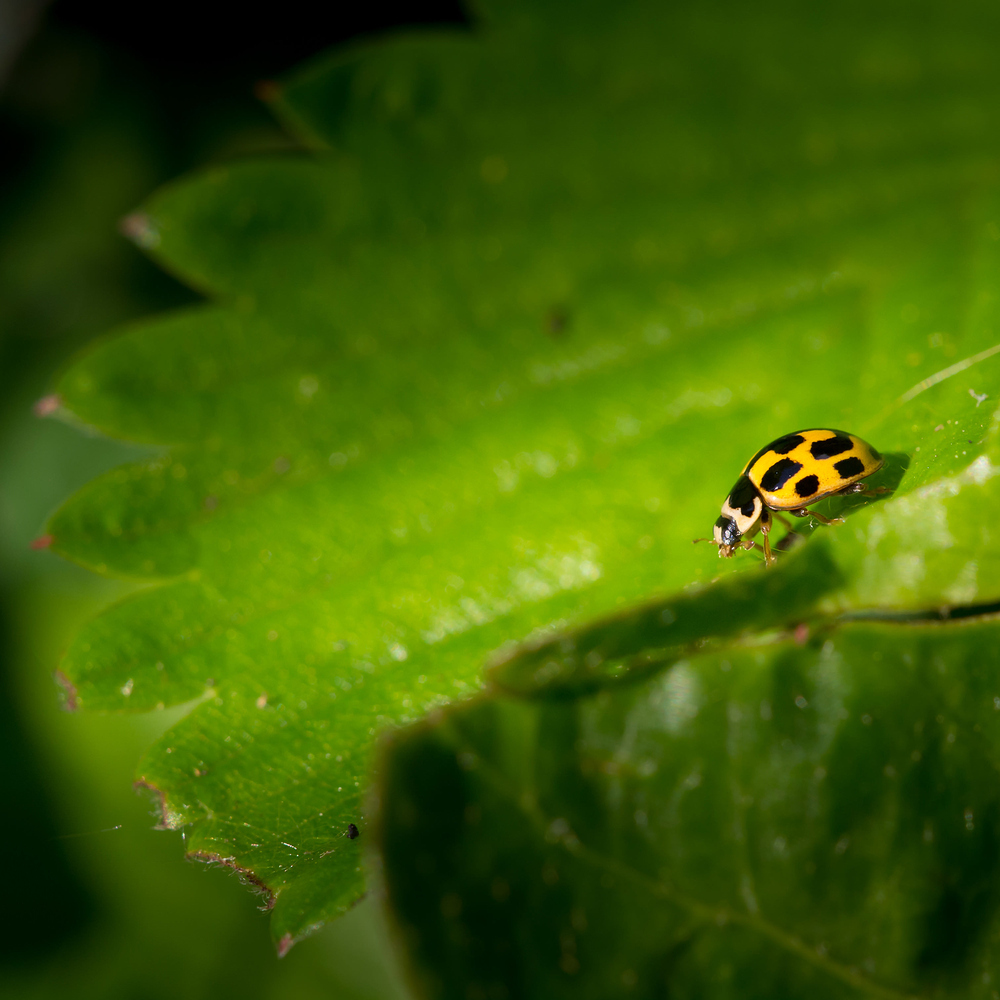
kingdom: Animalia
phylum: Arthropoda
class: Insecta
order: Coleoptera
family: Coccinellidae
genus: Propylaea
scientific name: Propylaea quatuordecimpunctata
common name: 14-spotted ladybird beetle
